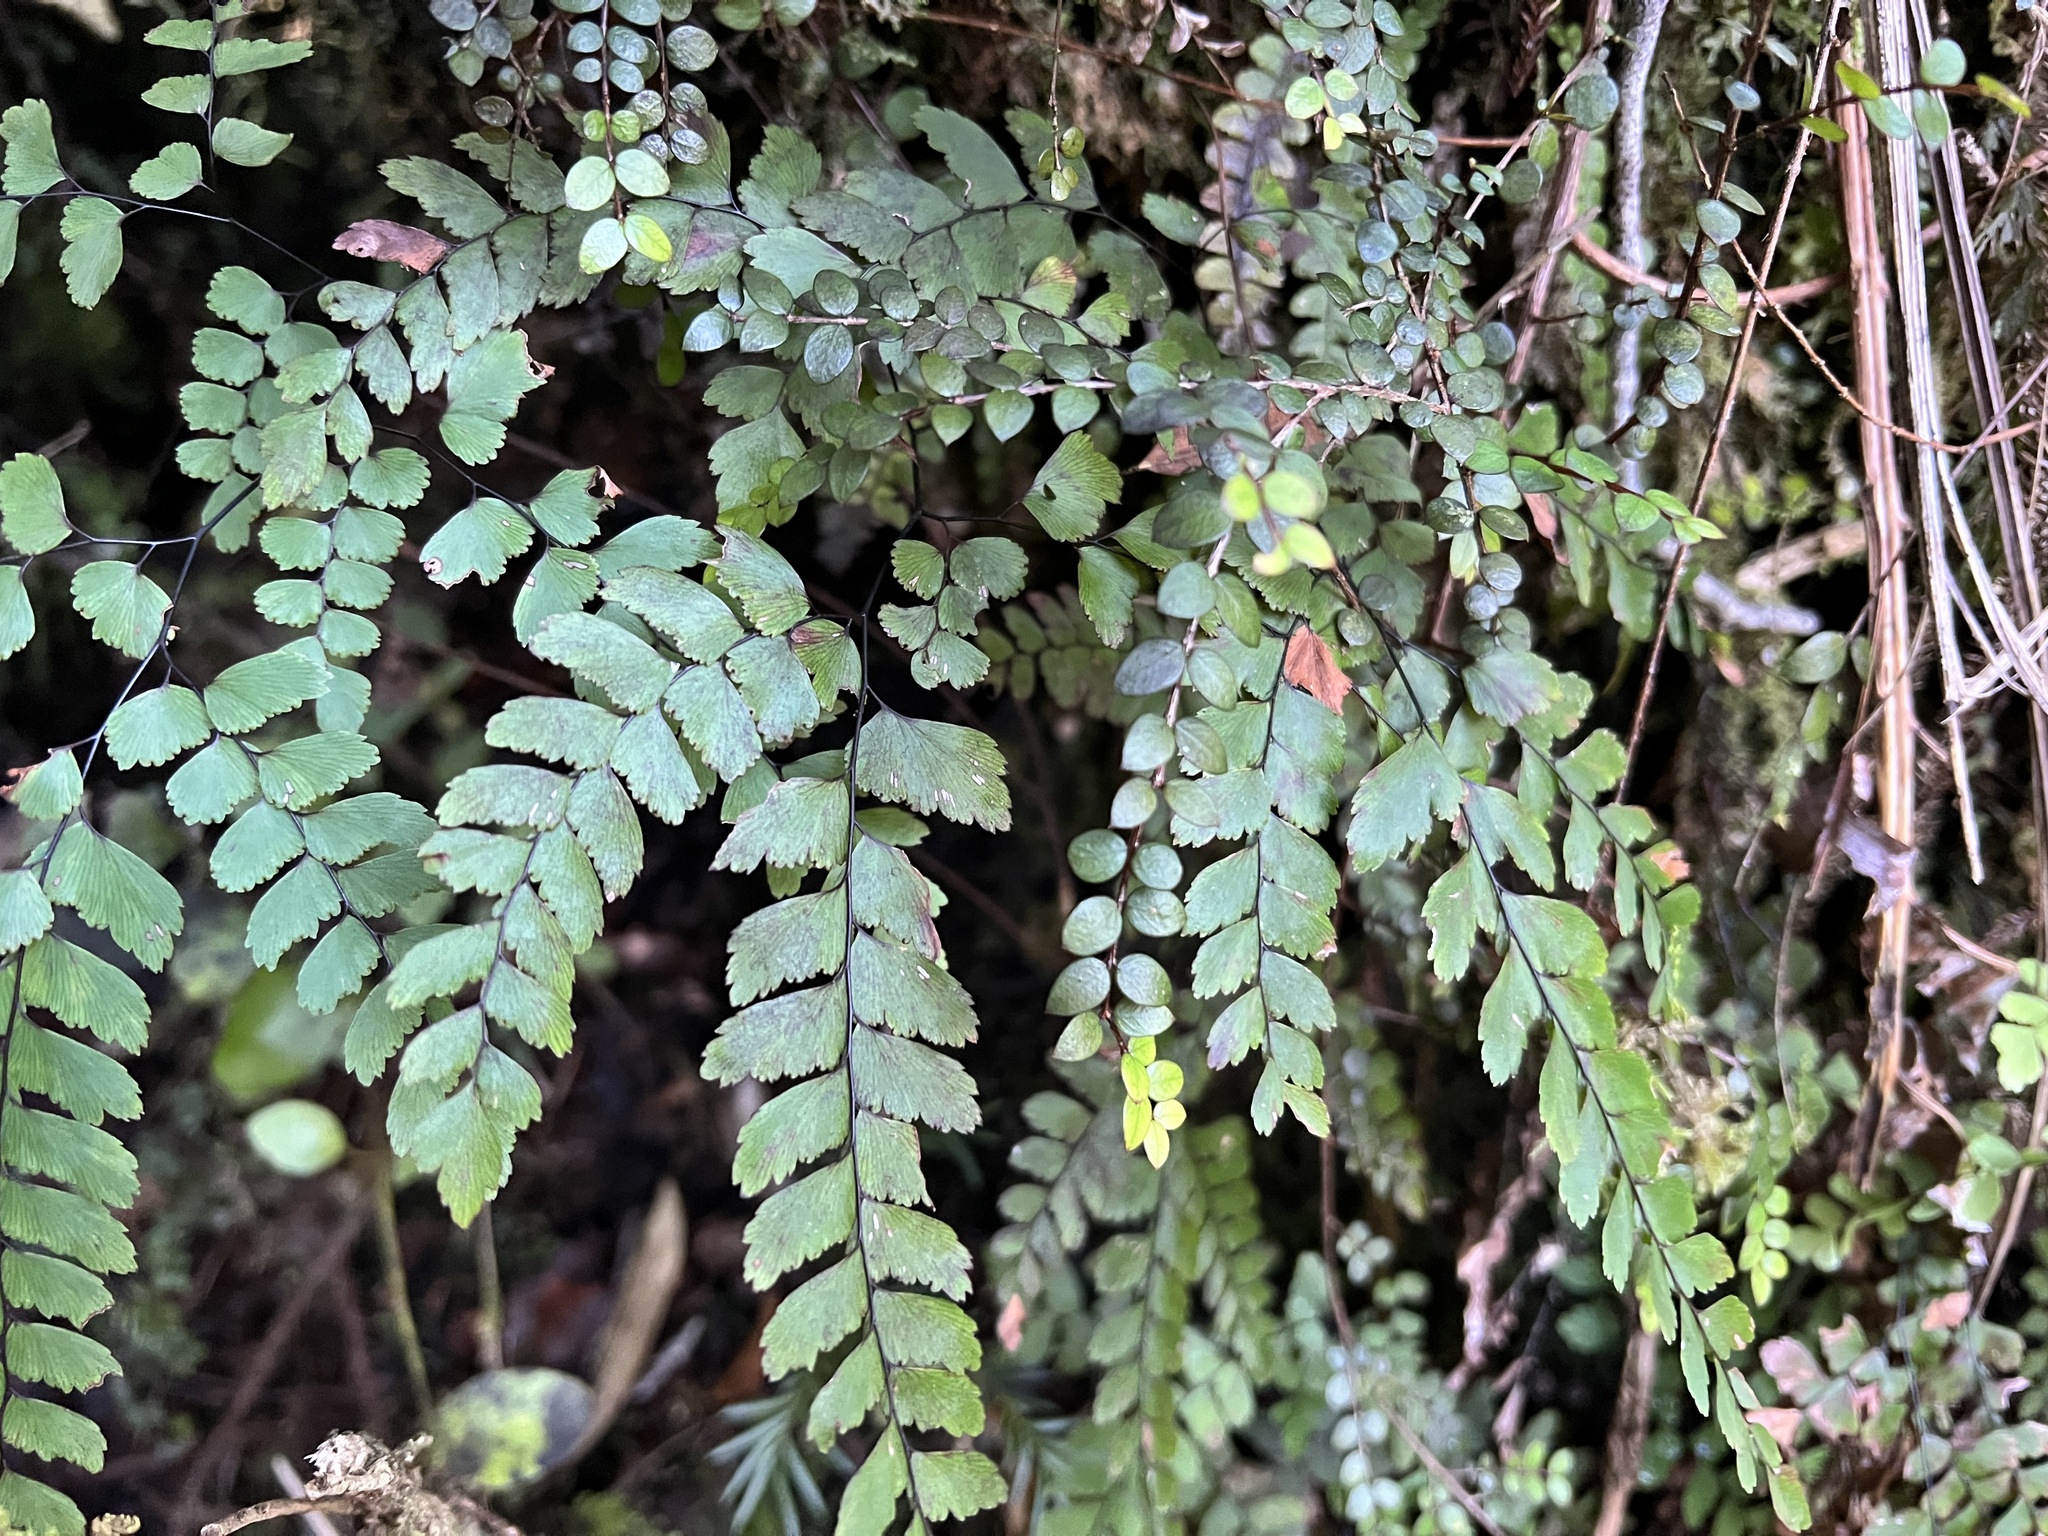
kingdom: Plantae
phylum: Tracheophyta
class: Polypodiopsida
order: Polypodiales
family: Pteridaceae
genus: Adiantum
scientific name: Adiantum cunninghamii
